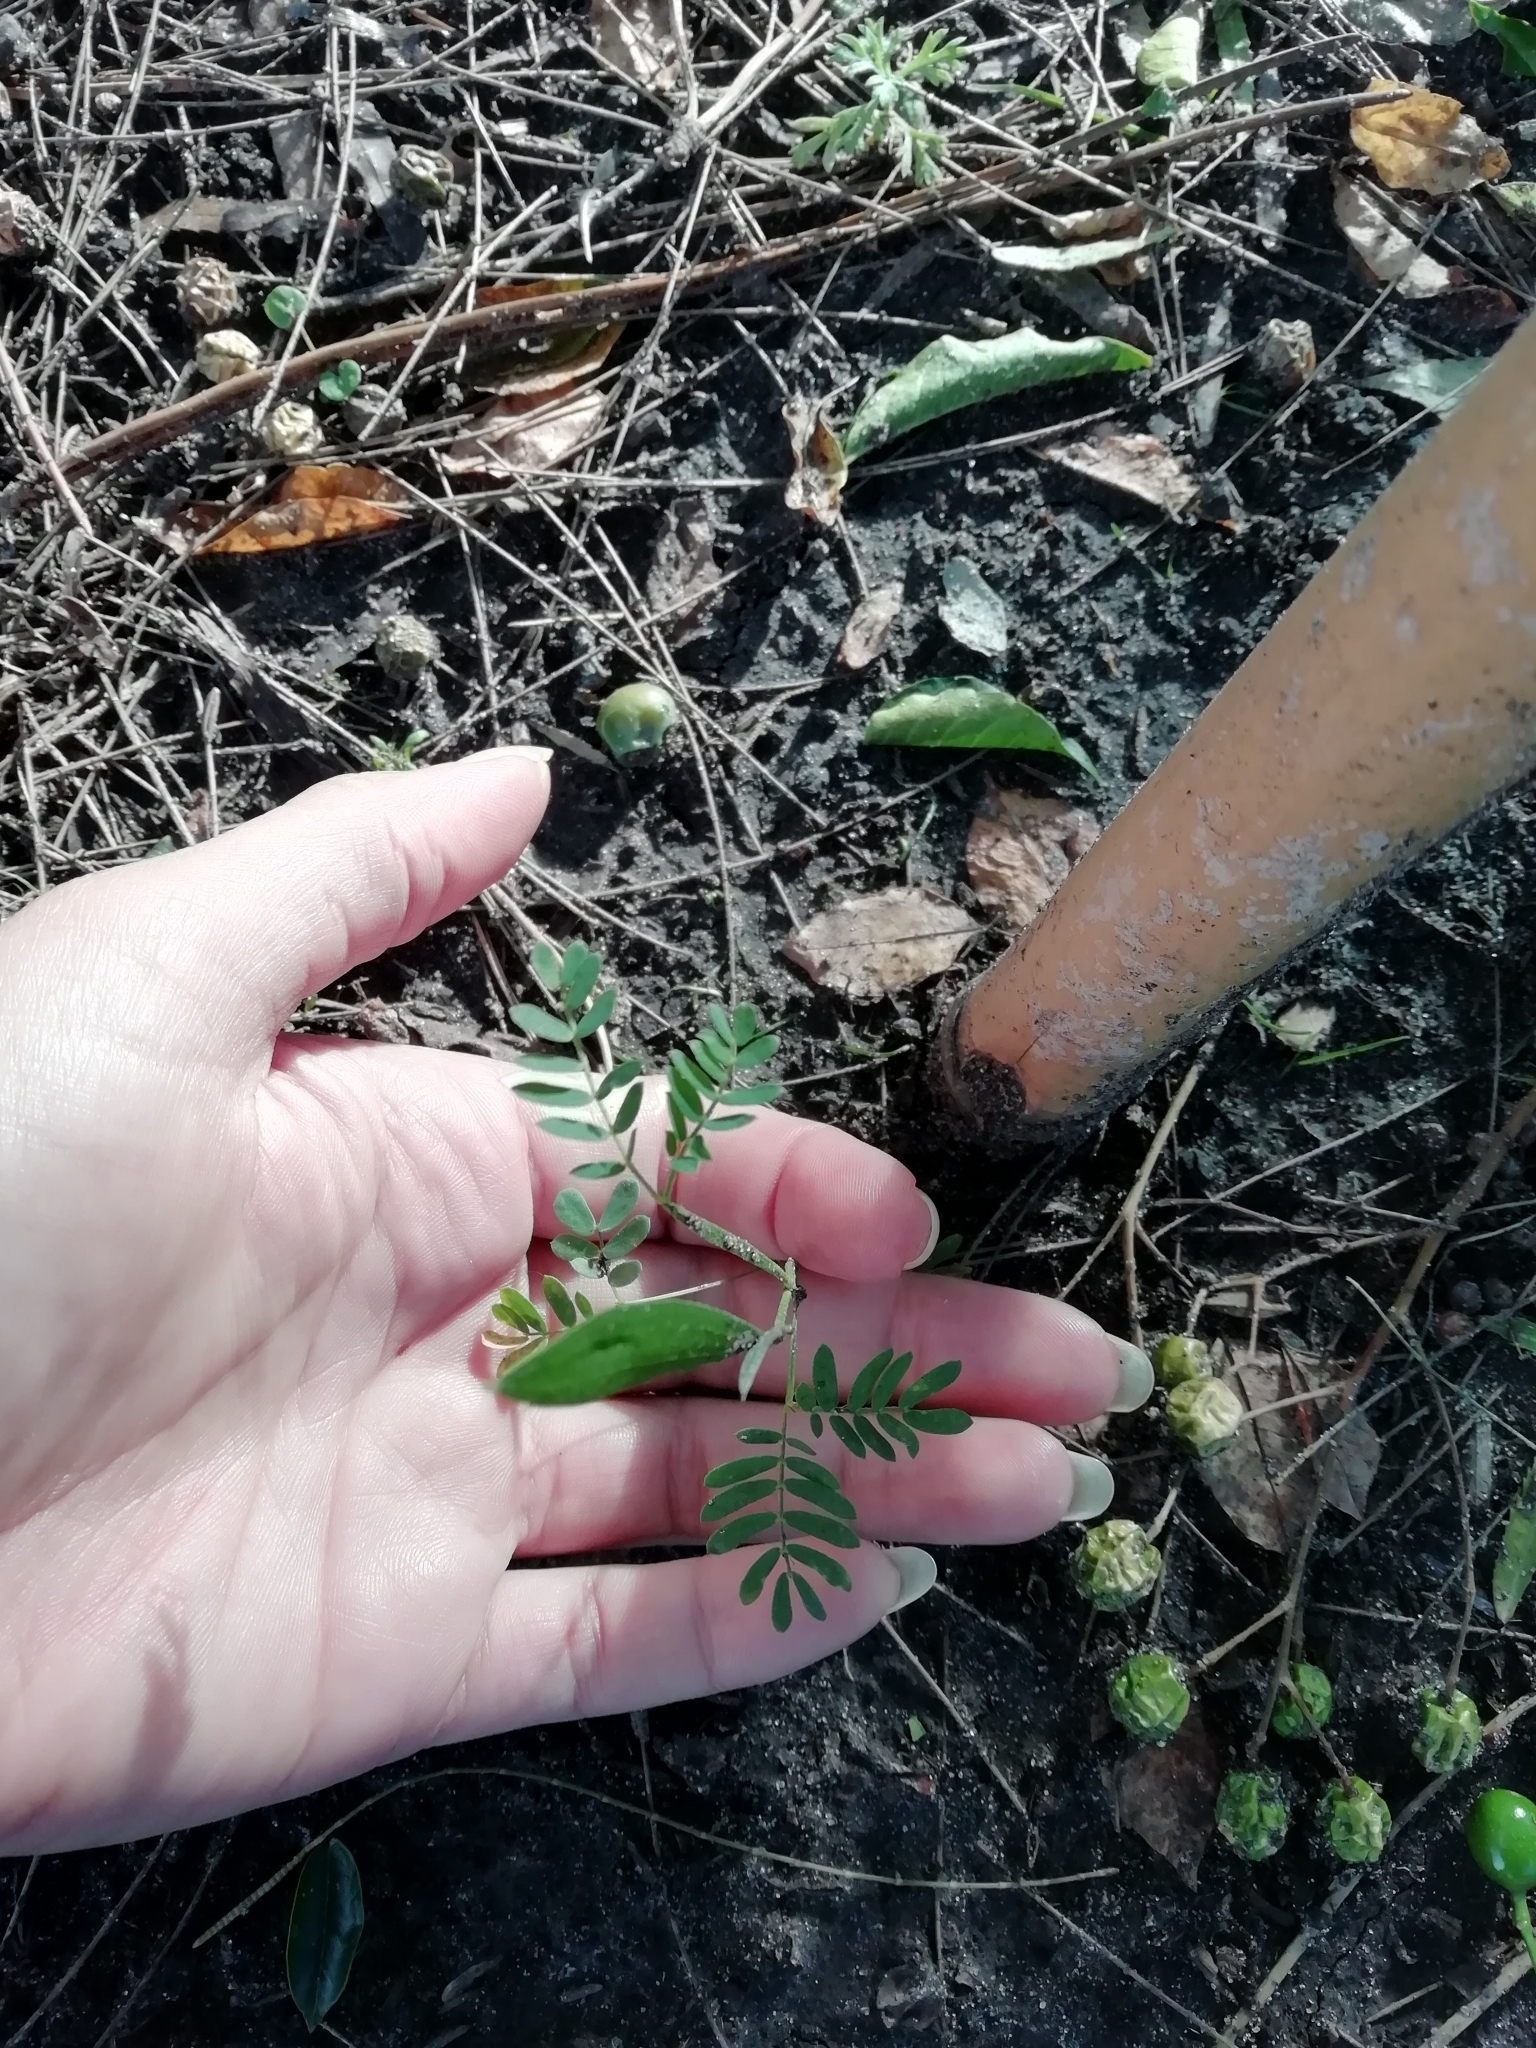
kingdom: Plantae
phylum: Tracheophyta
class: Magnoliopsida
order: Fabales
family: Fabaceae
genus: Acacia
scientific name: Acacia longifolia
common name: Sydney golden wattle
